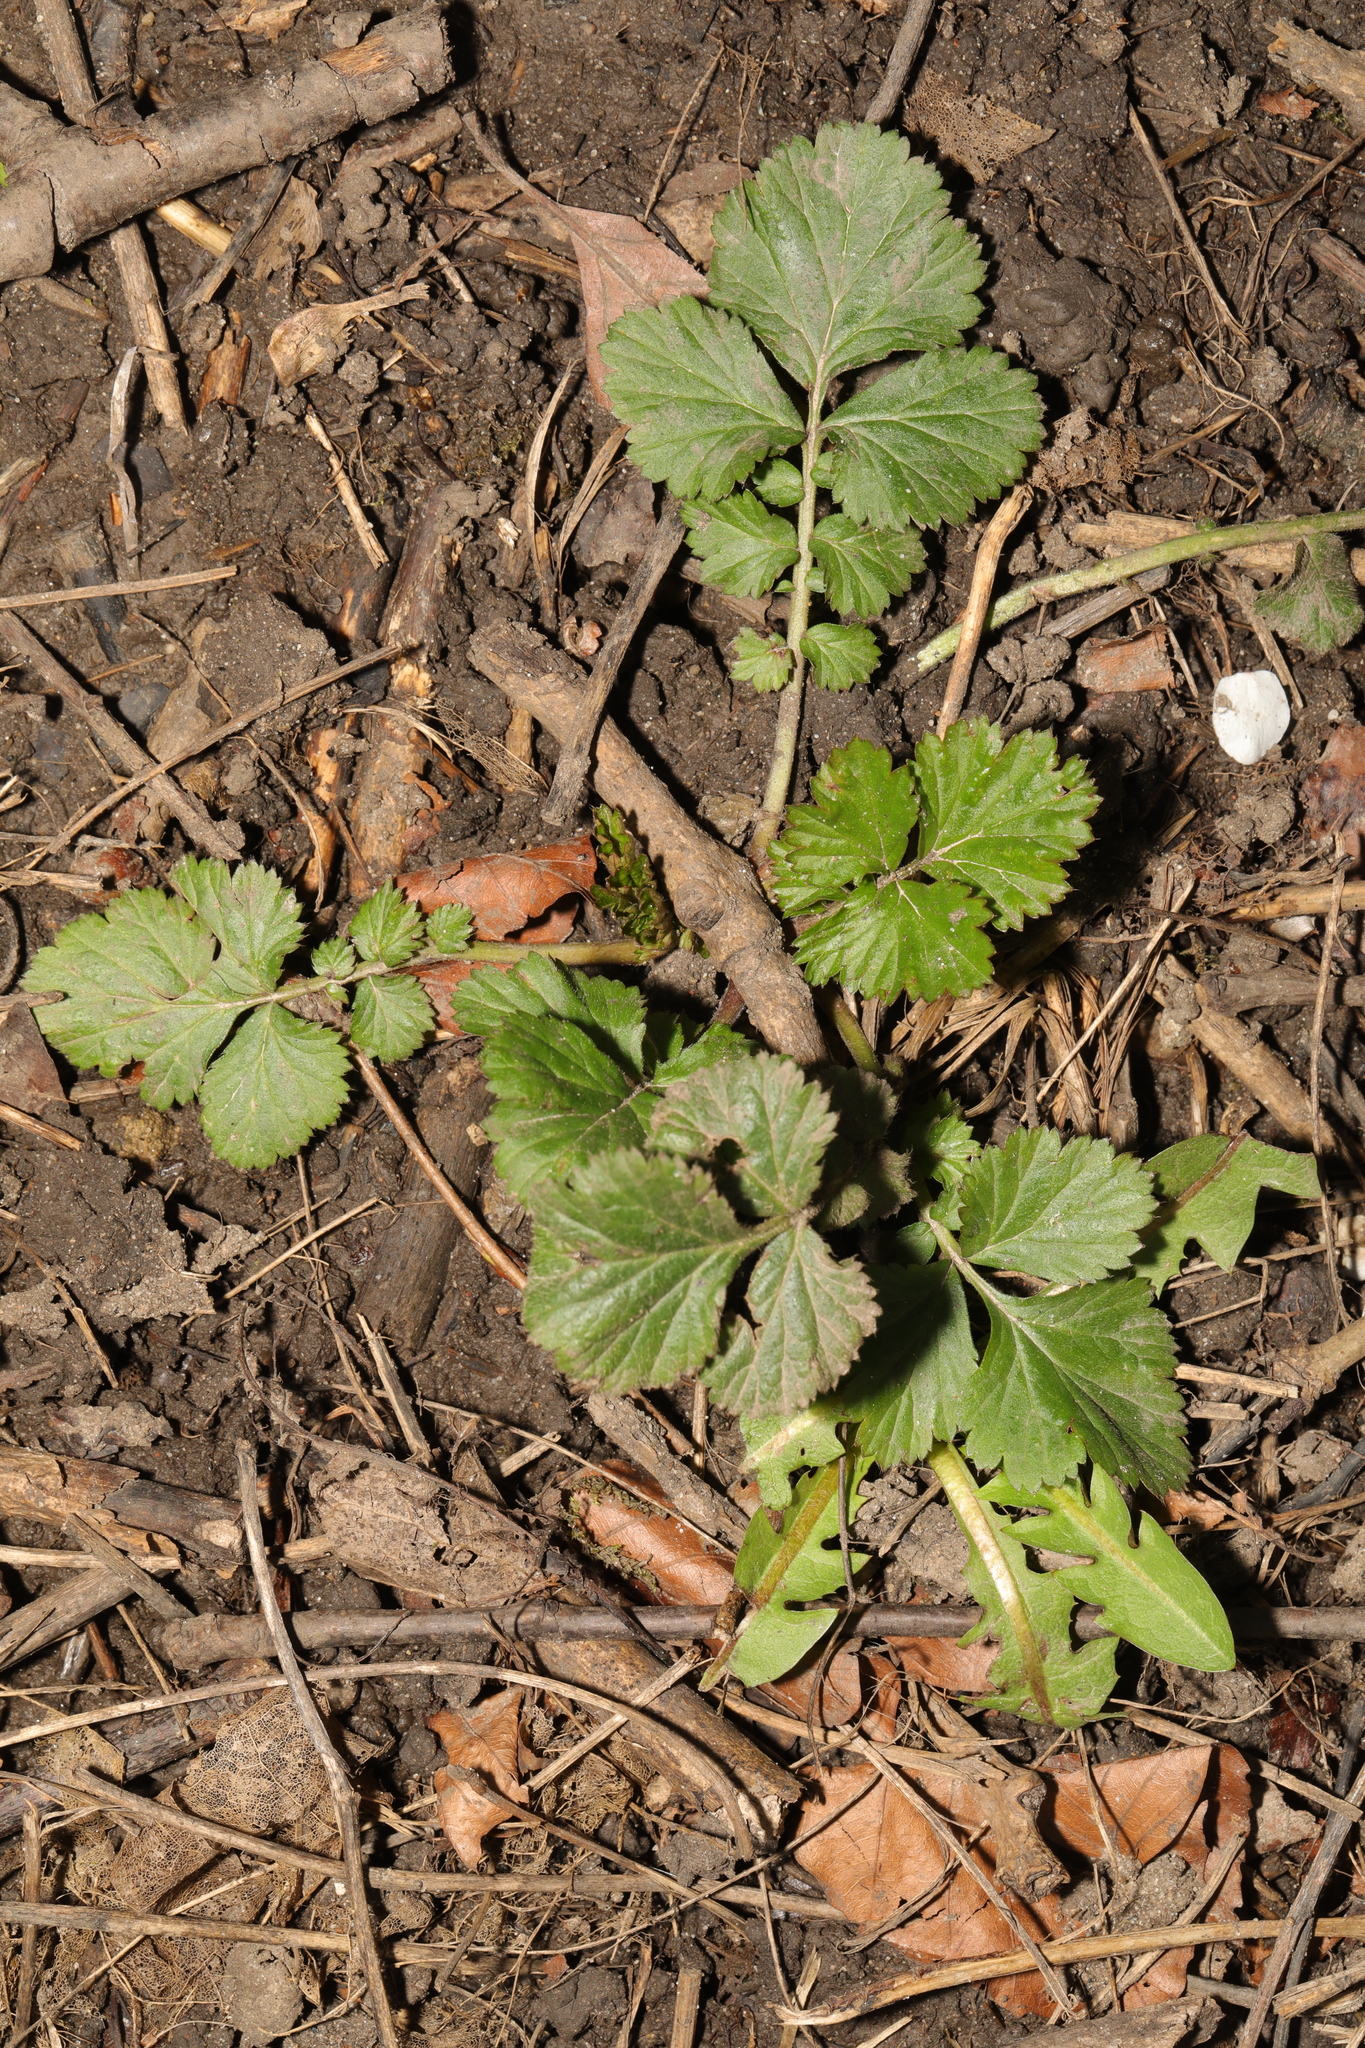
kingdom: Plantae
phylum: Tracheophyta
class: Magnoliopsida
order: Rosales
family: Rosaceae
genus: Geum
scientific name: Geum urbanum
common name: Wood avens
